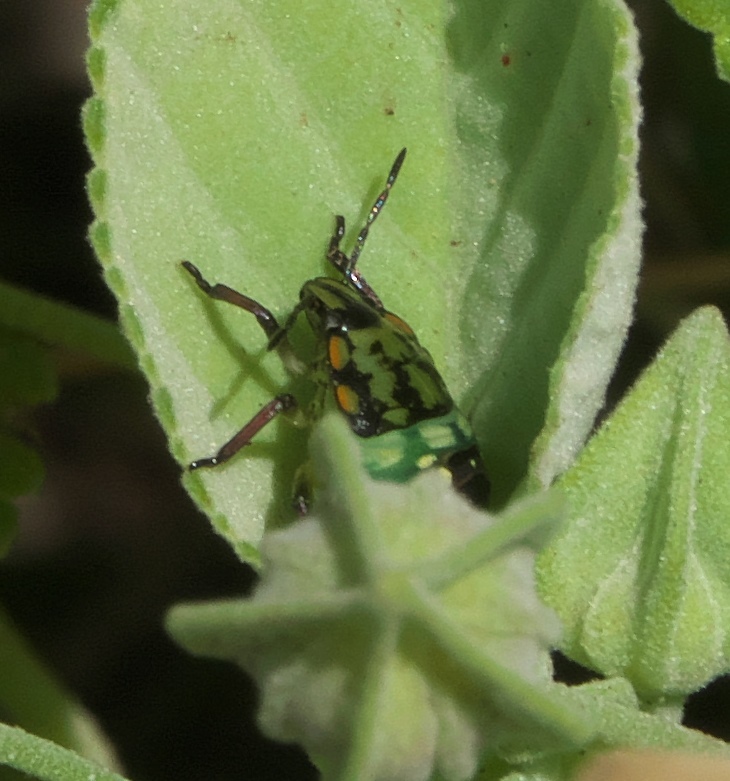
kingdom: Animalia
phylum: Arthropoda
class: Insecta
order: Hemiptera
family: Pentatomidae
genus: Nezara
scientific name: Nezara viridula
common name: Southern green stink bug
